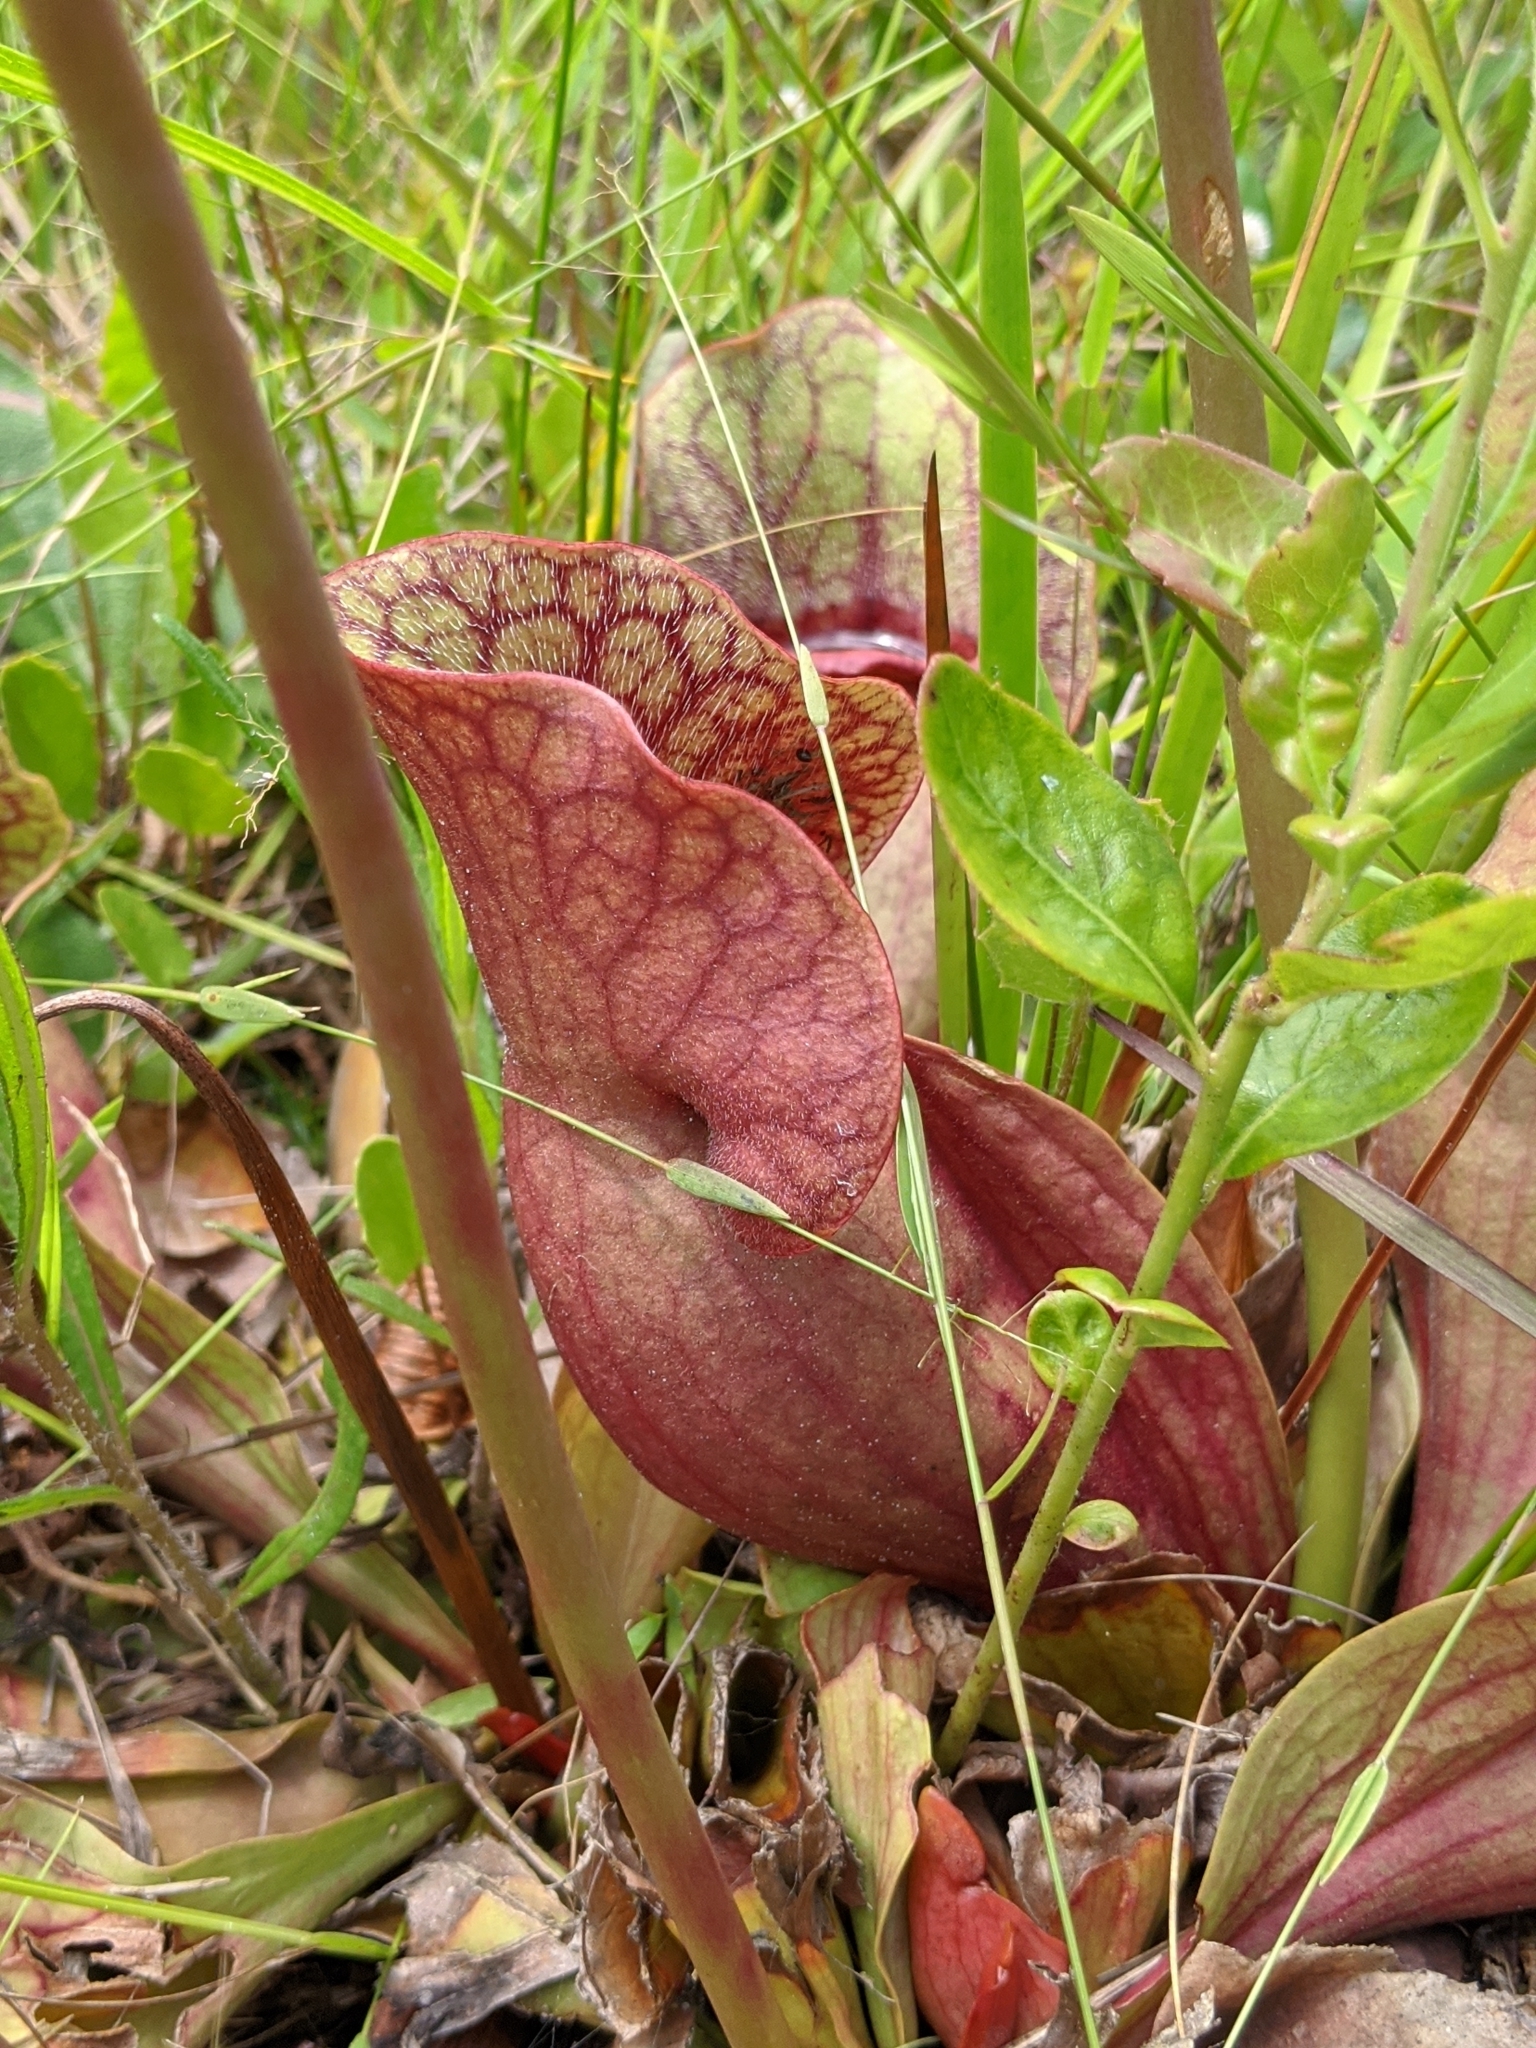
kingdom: Plantae
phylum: Tracheophyta
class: Magnoliopsida
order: Ericales
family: Sarraceniaceae
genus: Sarracenia
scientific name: Sarracenia rosea
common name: Pink pitcherplant
